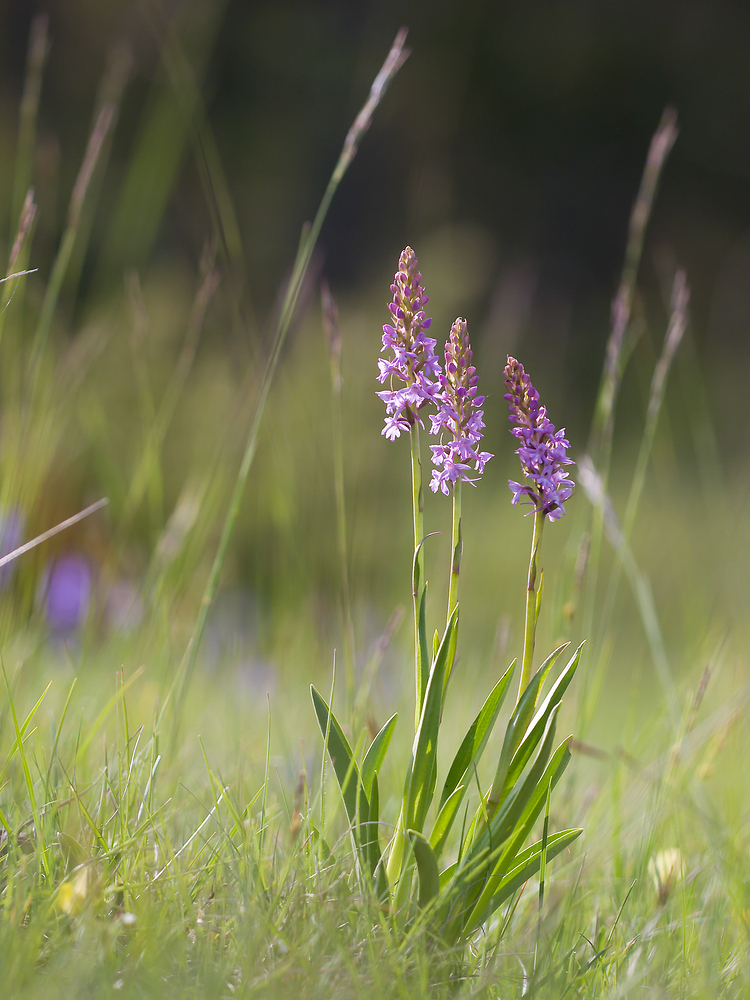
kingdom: Plantae
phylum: Tracheophyta
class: Liliopsida
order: Asparagales
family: Orchidaceae
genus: Gymnadenia
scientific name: Gymnadenia conopsea
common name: Fragrant orchid
